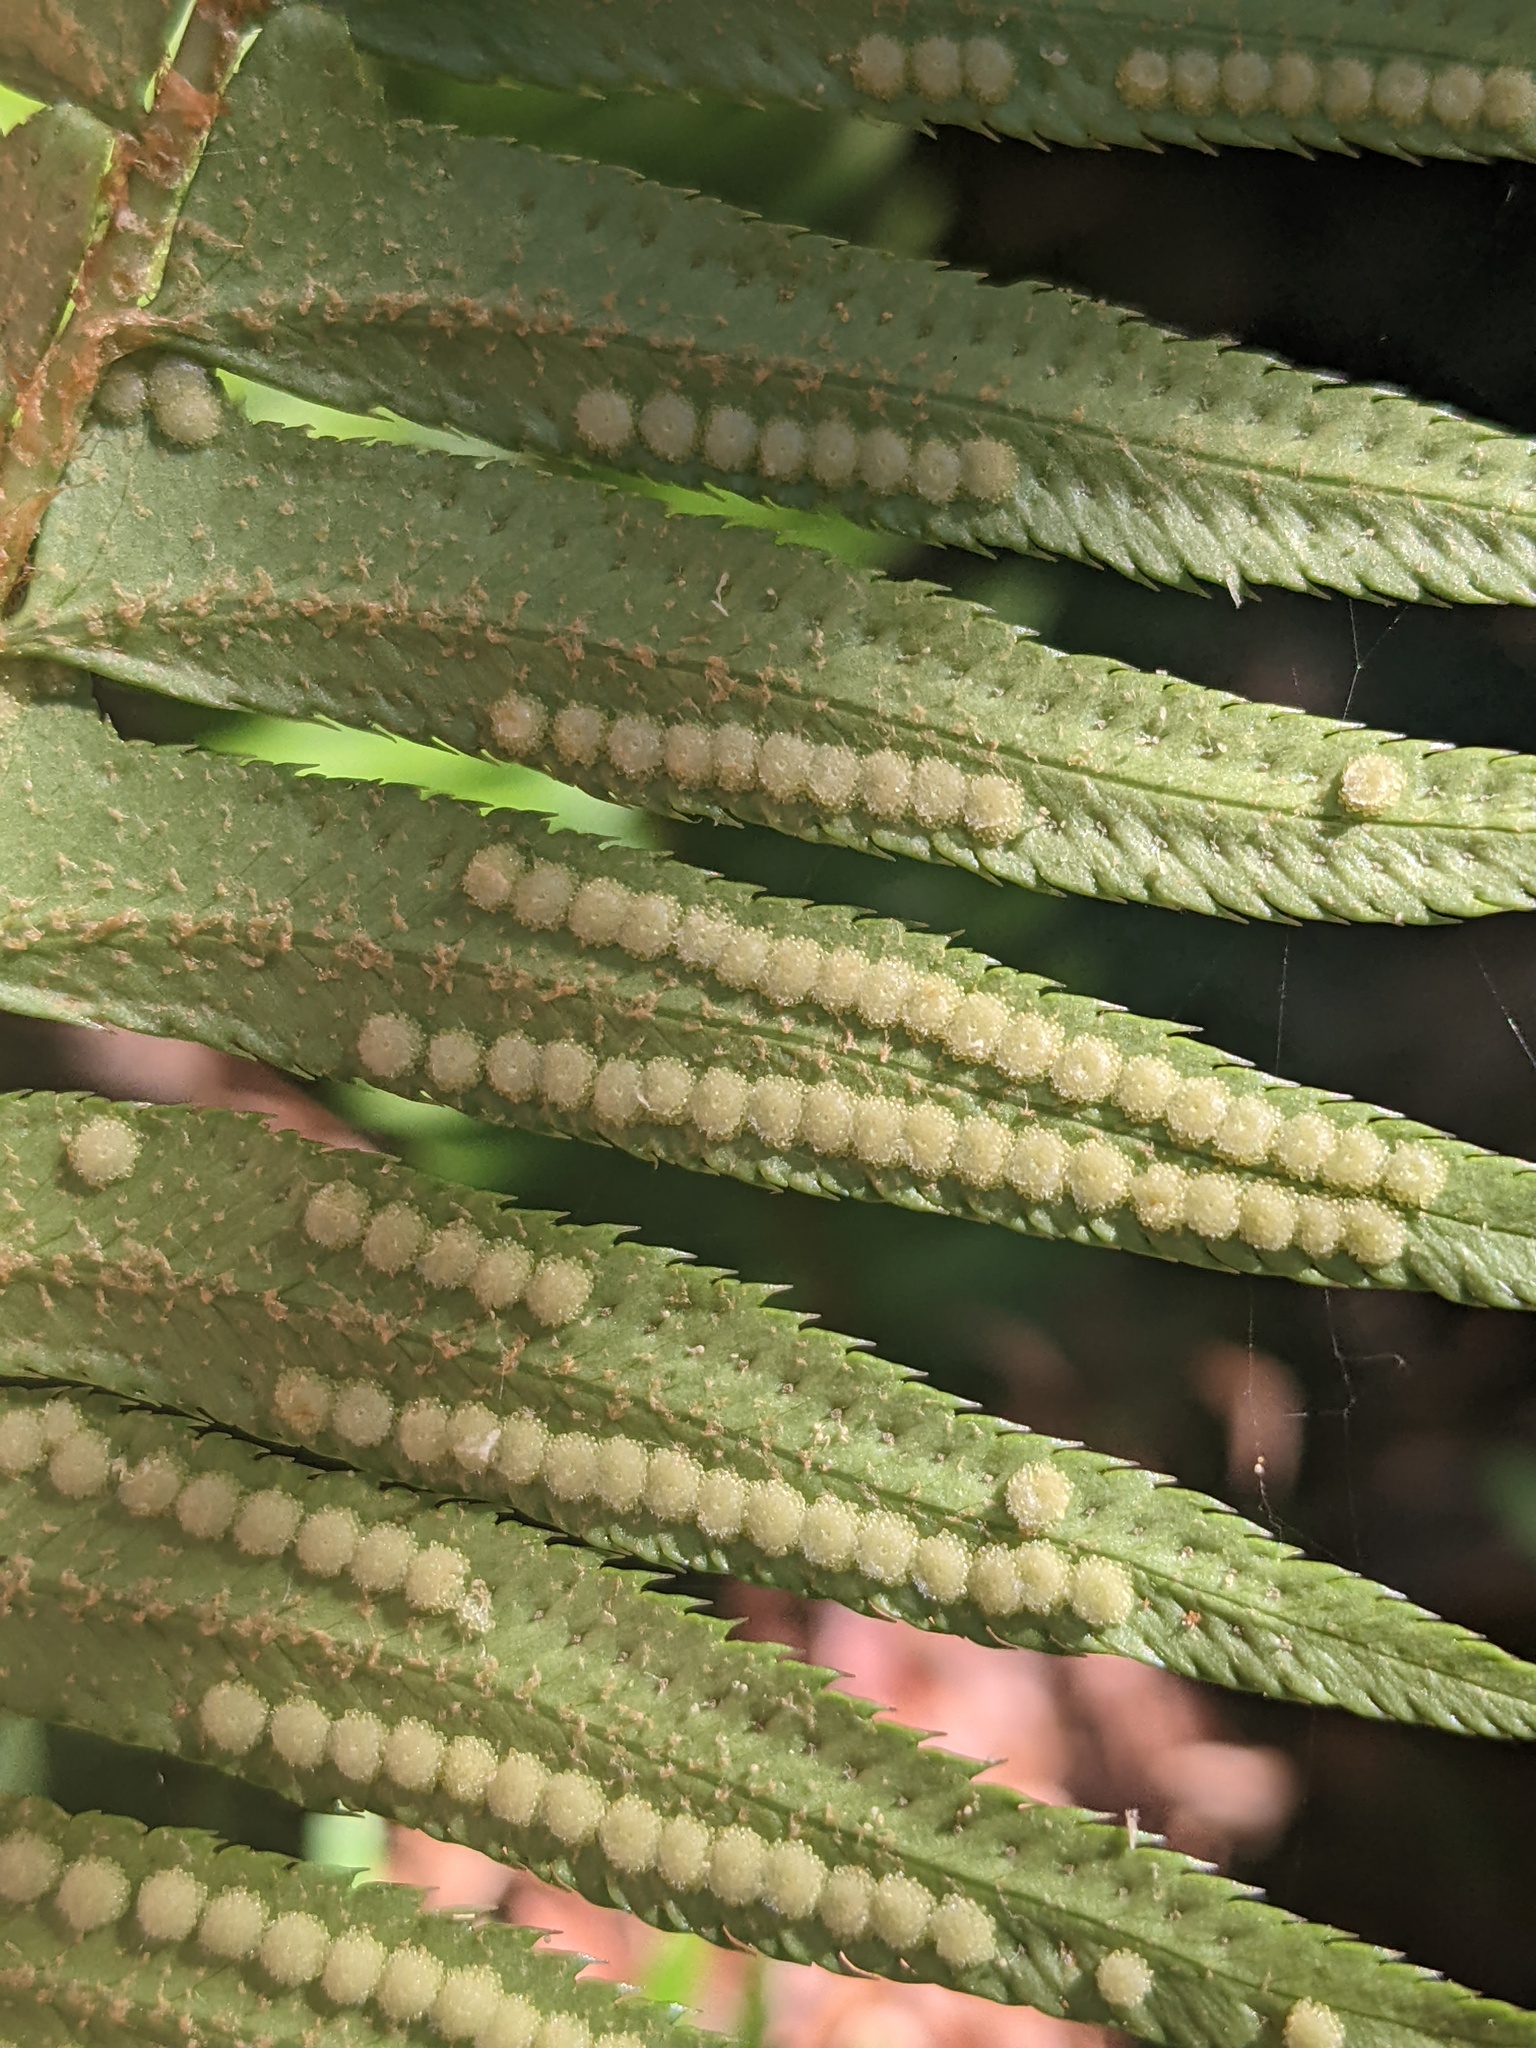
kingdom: Plantae
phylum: Tracheophyta
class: Polypodiopsida
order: Polypodiales
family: Dryopteridaceae
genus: Polystichum
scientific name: Polystichum munitum
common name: Western sword-fern
